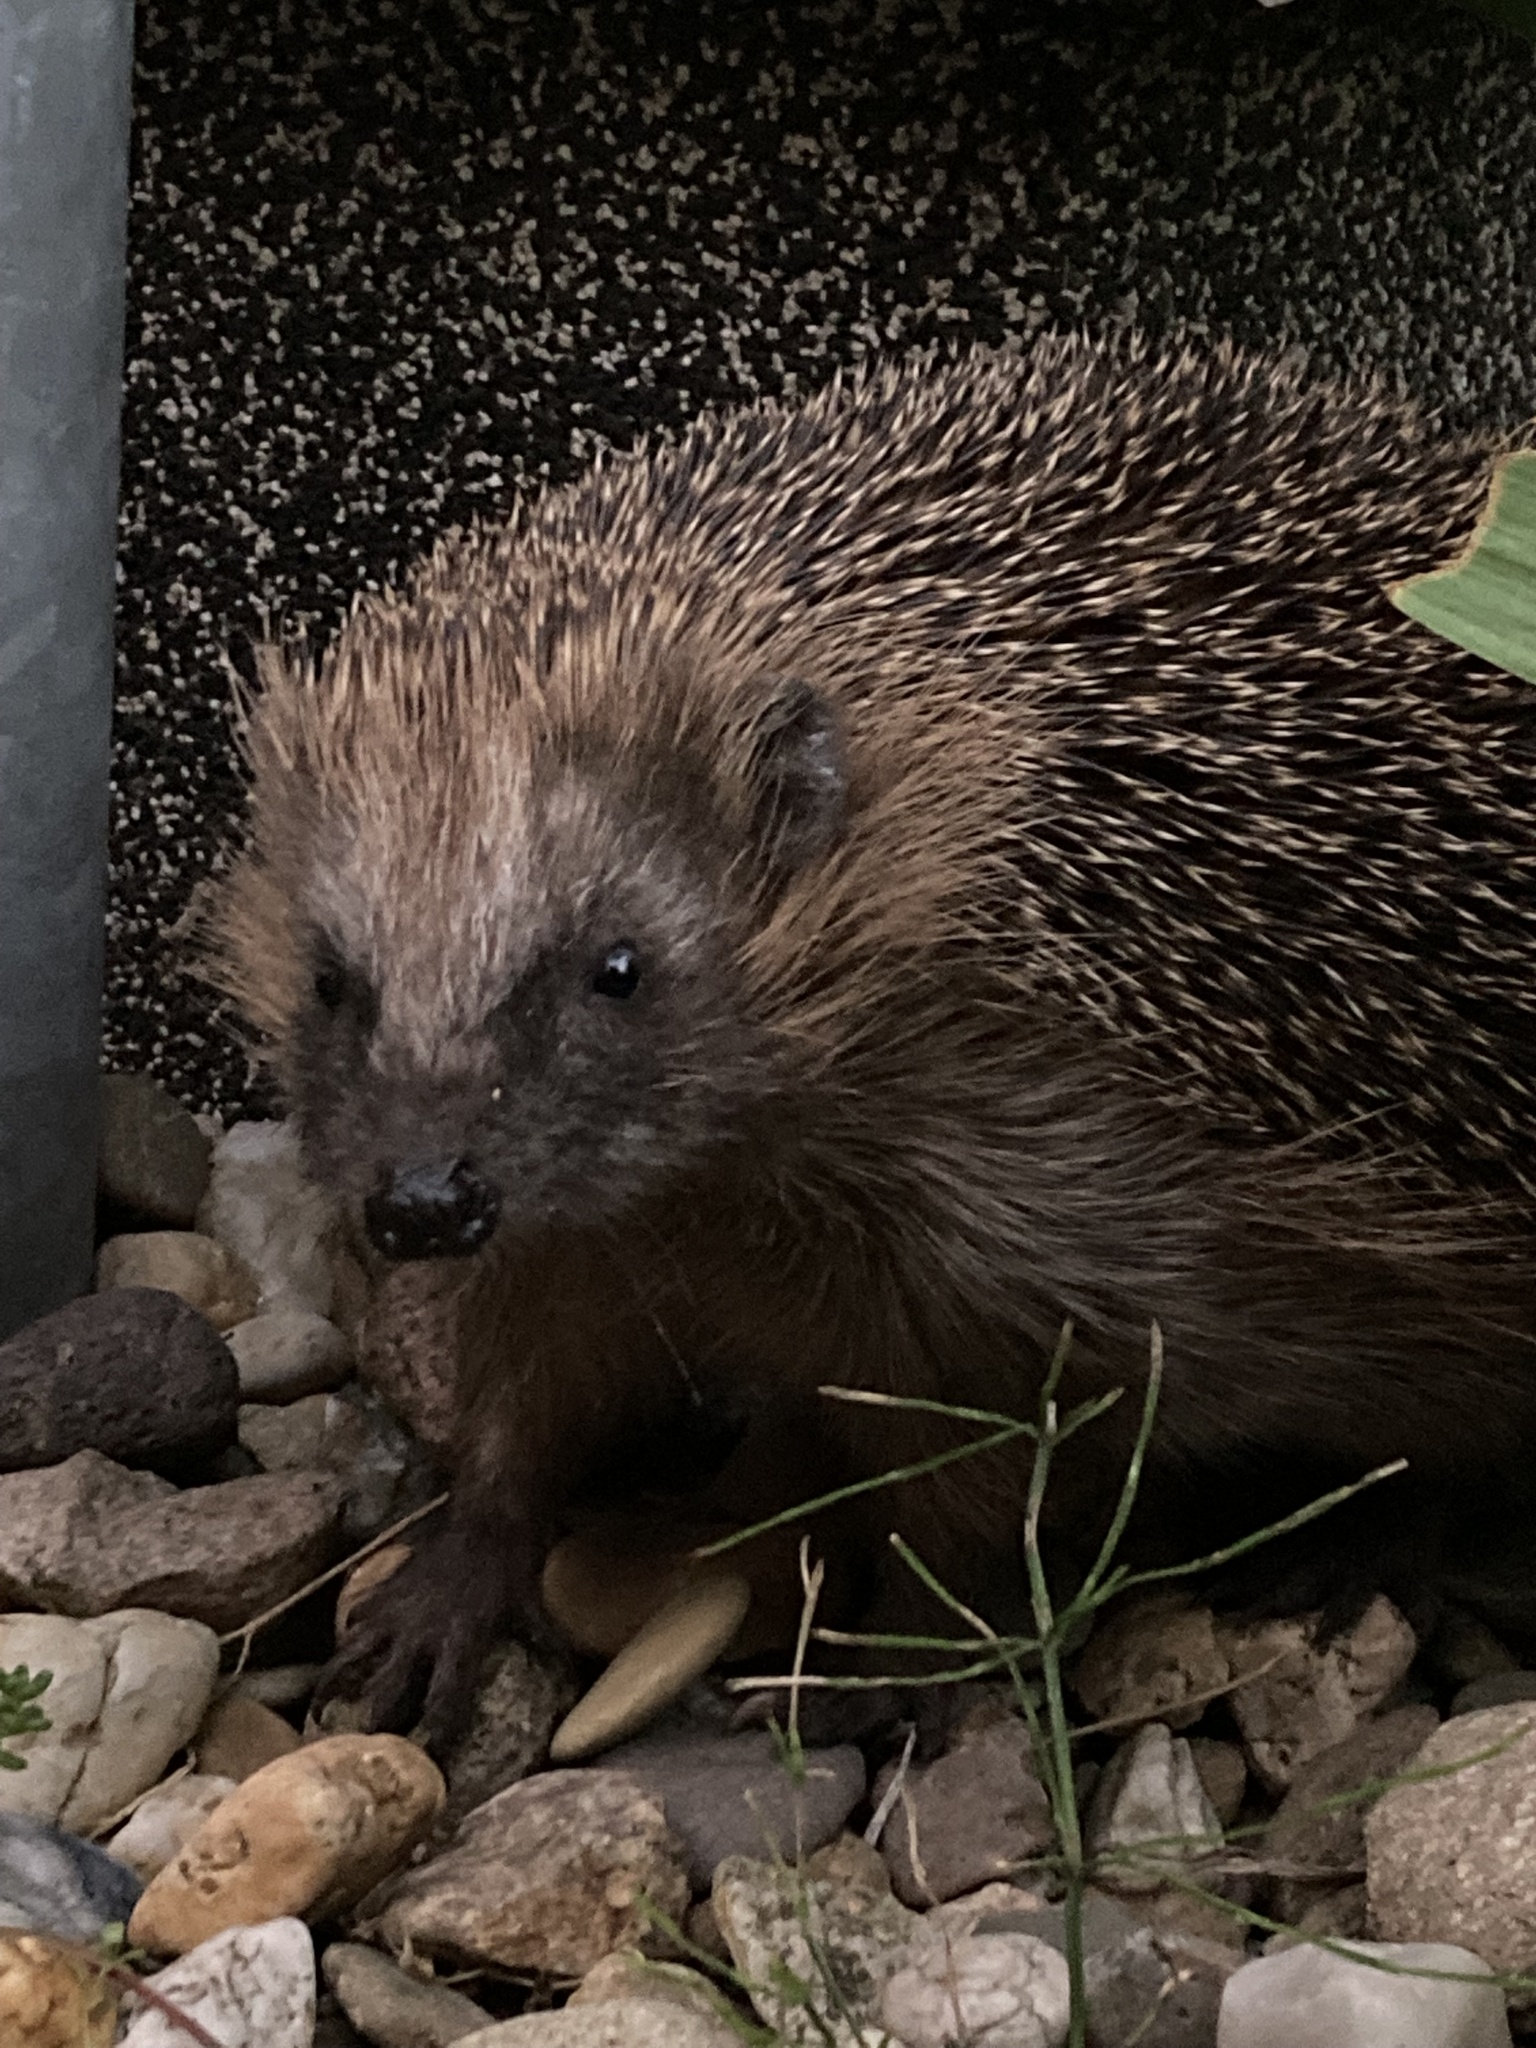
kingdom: Animalia
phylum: Chordata
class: Mammalia
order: Erinaceomorpha
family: Erinaceidae
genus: Erinaceus
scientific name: Erinaceus europaeus
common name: West european hedgehog
